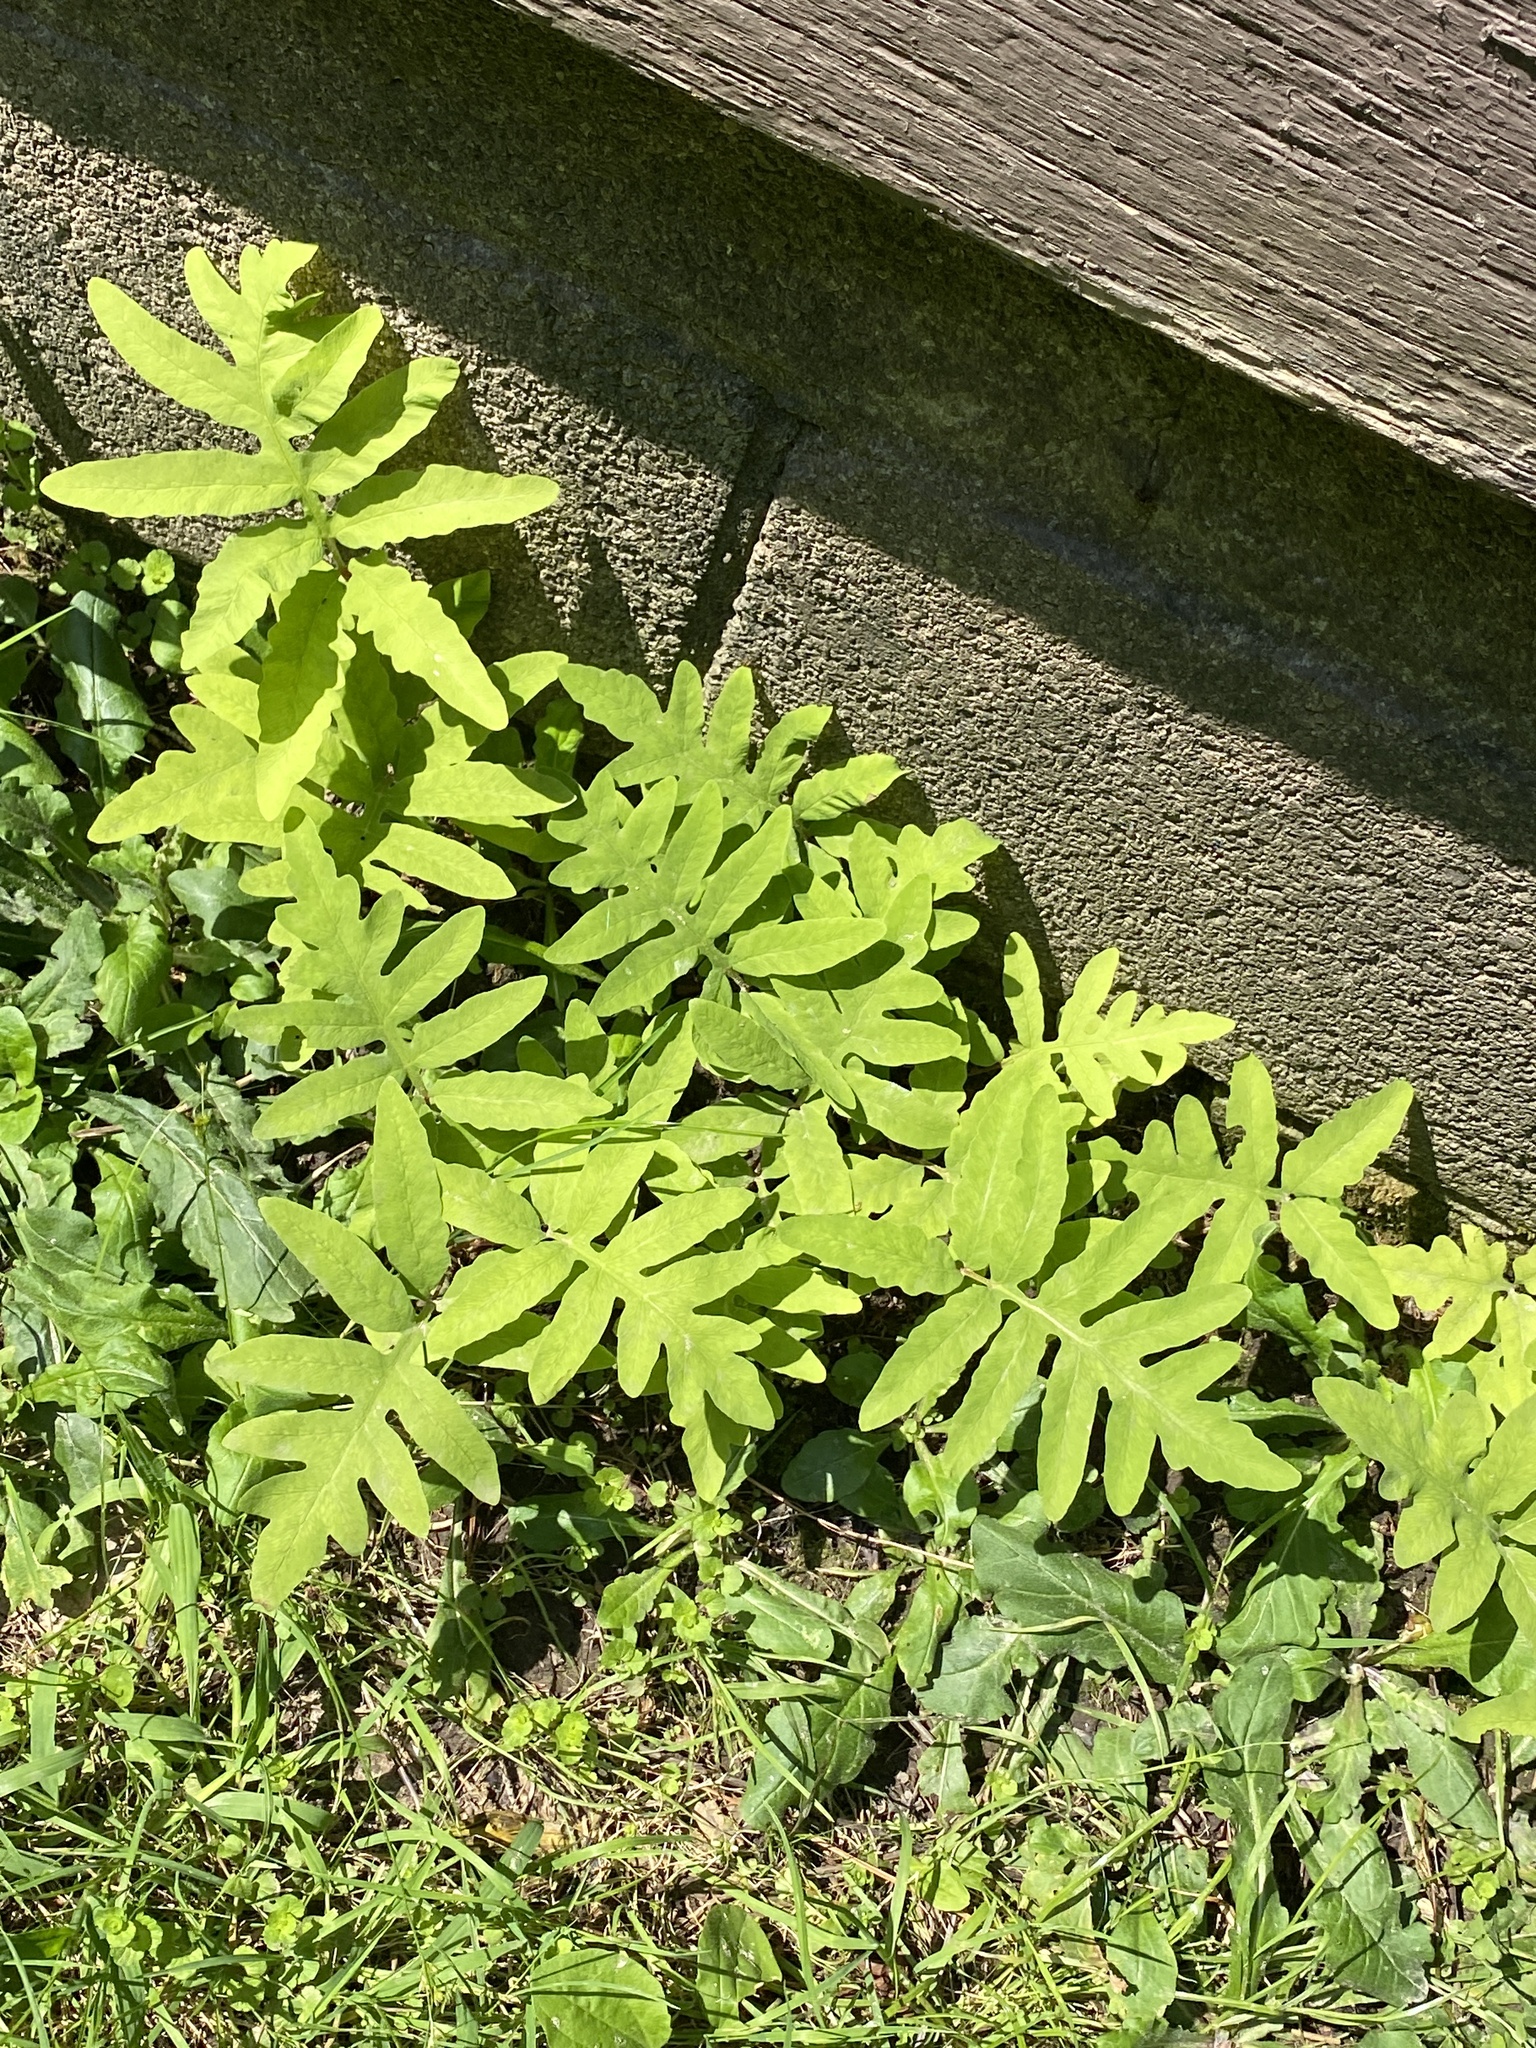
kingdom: Plantae
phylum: Tracheophyta
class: Polypodiopsida
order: Polypodiales
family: Onocleaceae
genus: Onoclea
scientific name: Onoclea sensibilis
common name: Sensitive fern
